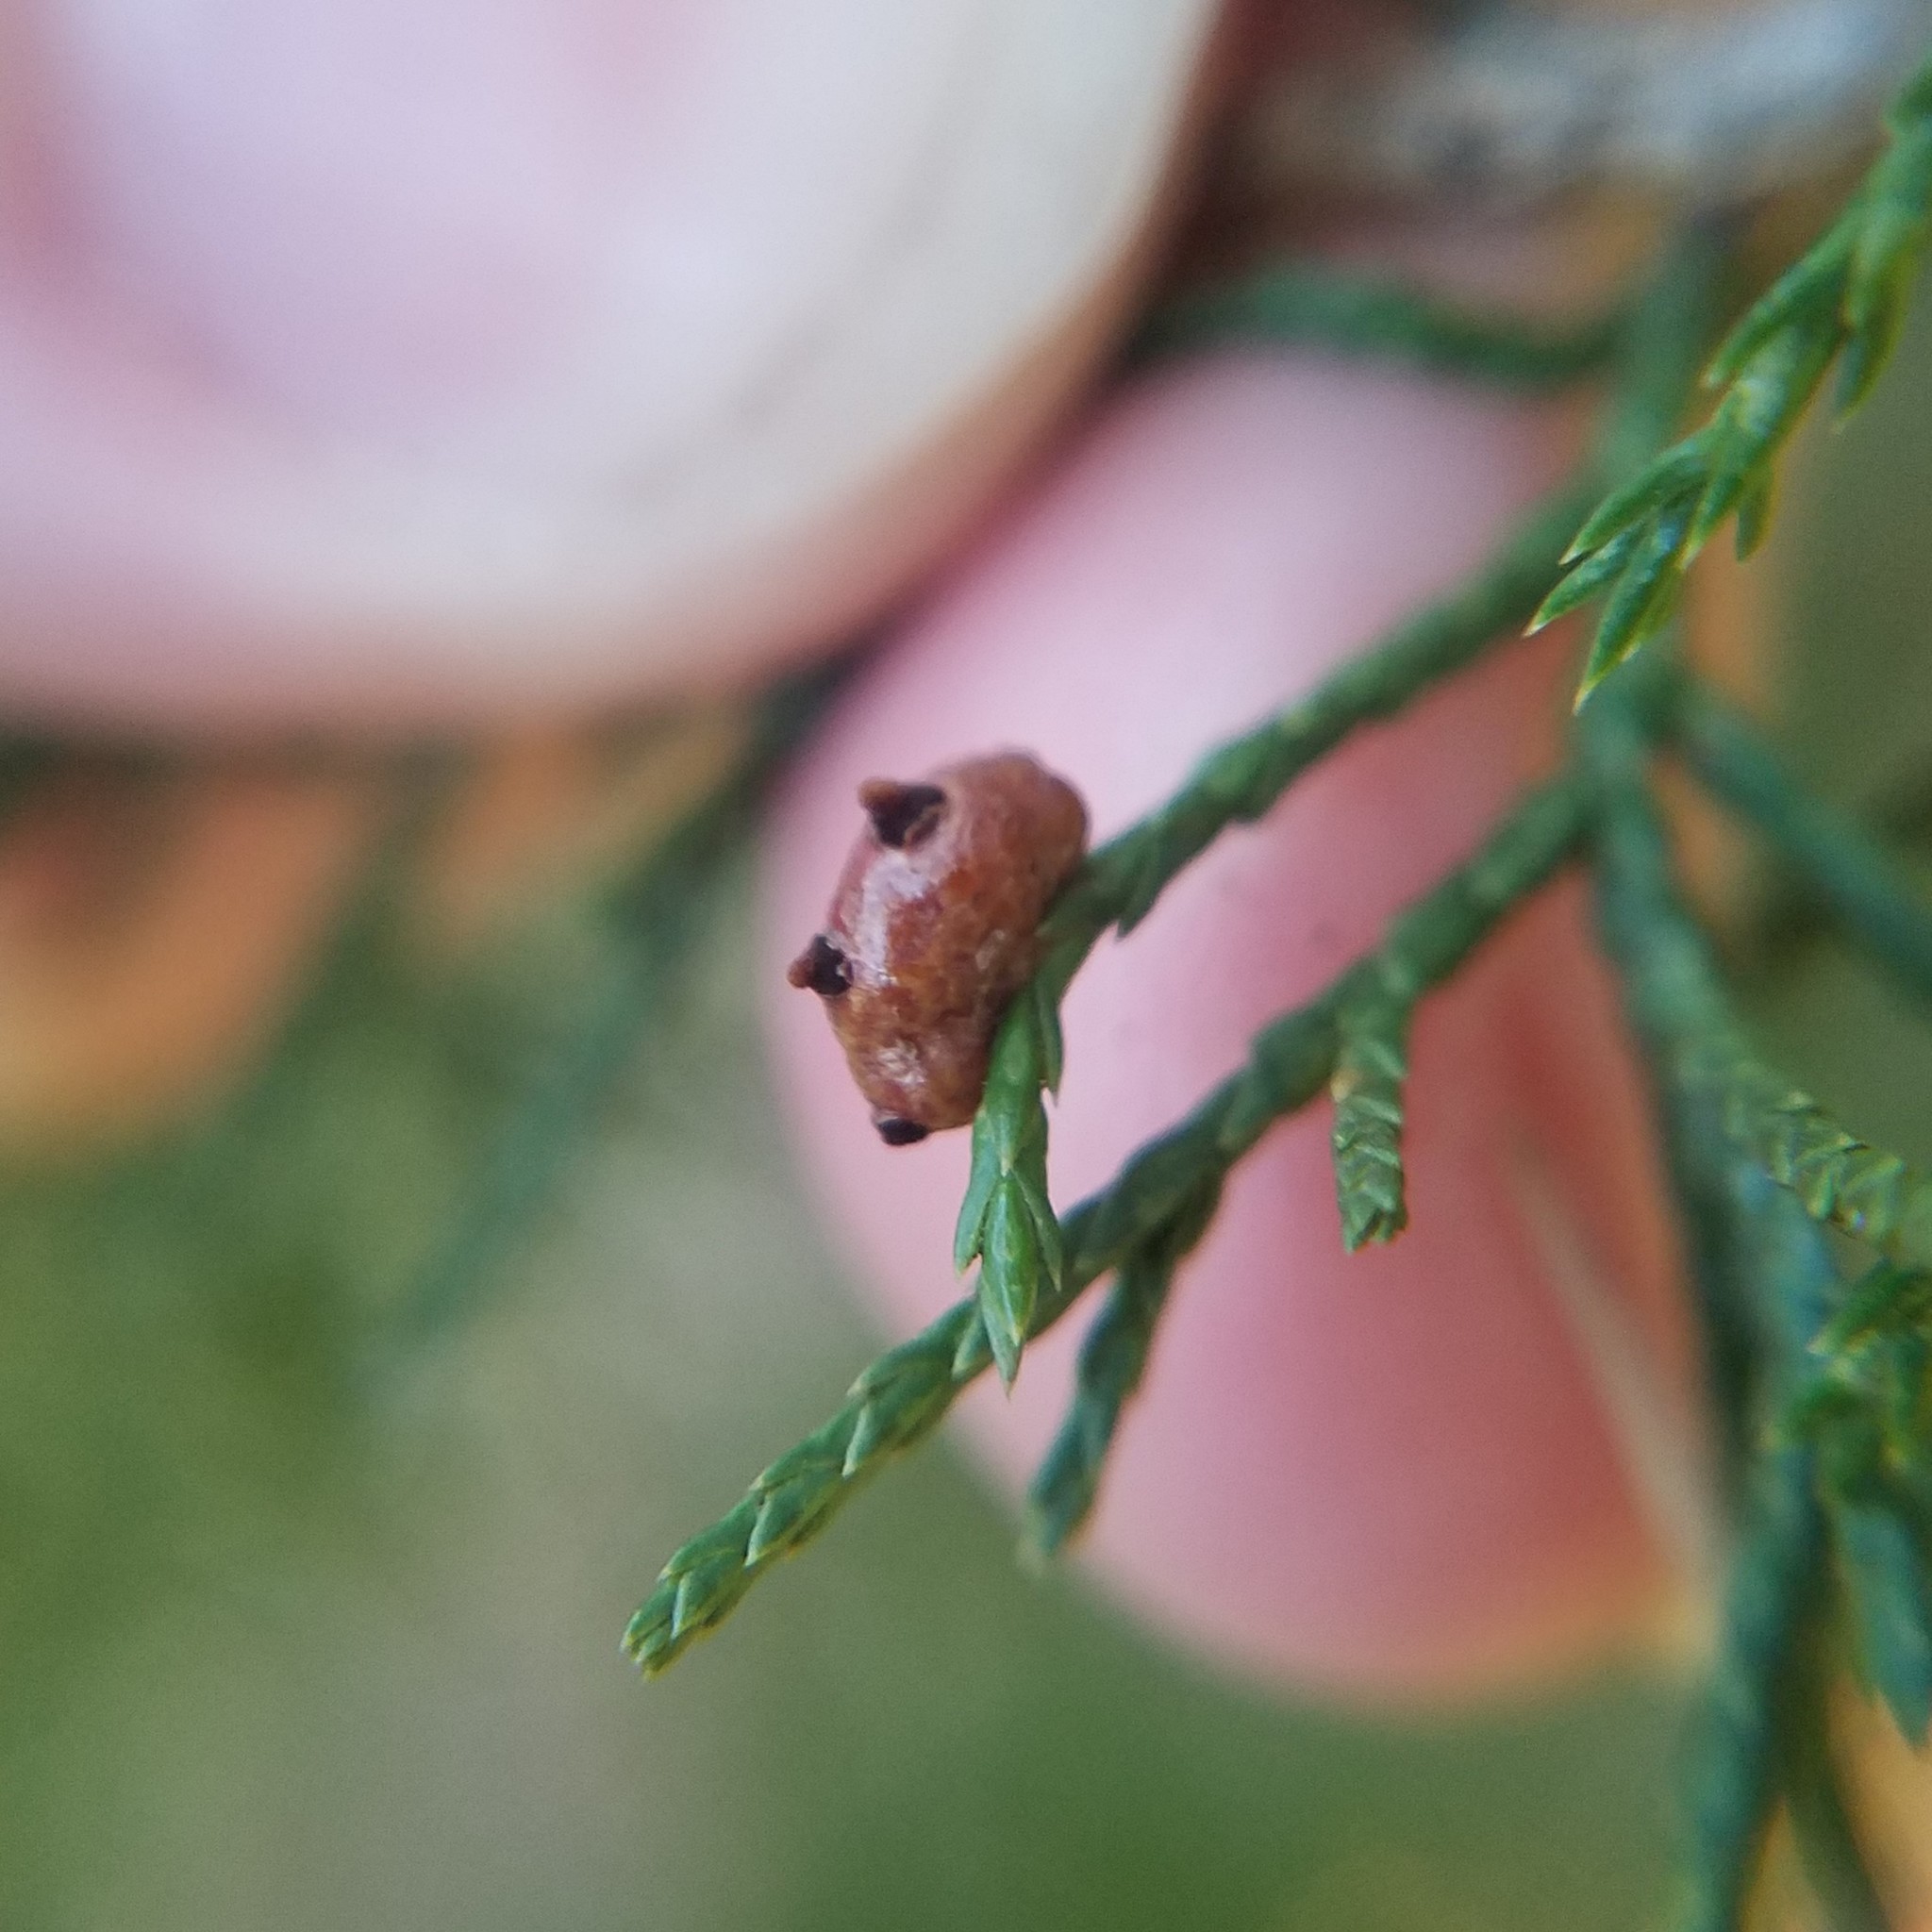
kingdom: Fungi
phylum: Basidiomycota
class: Pucciniomycetes
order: Pucciniales
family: Gymnosporangiaceae
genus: Gymnosporangium
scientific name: Gymnosporangium juniperi-virginianae
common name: Juniper-apple rust
